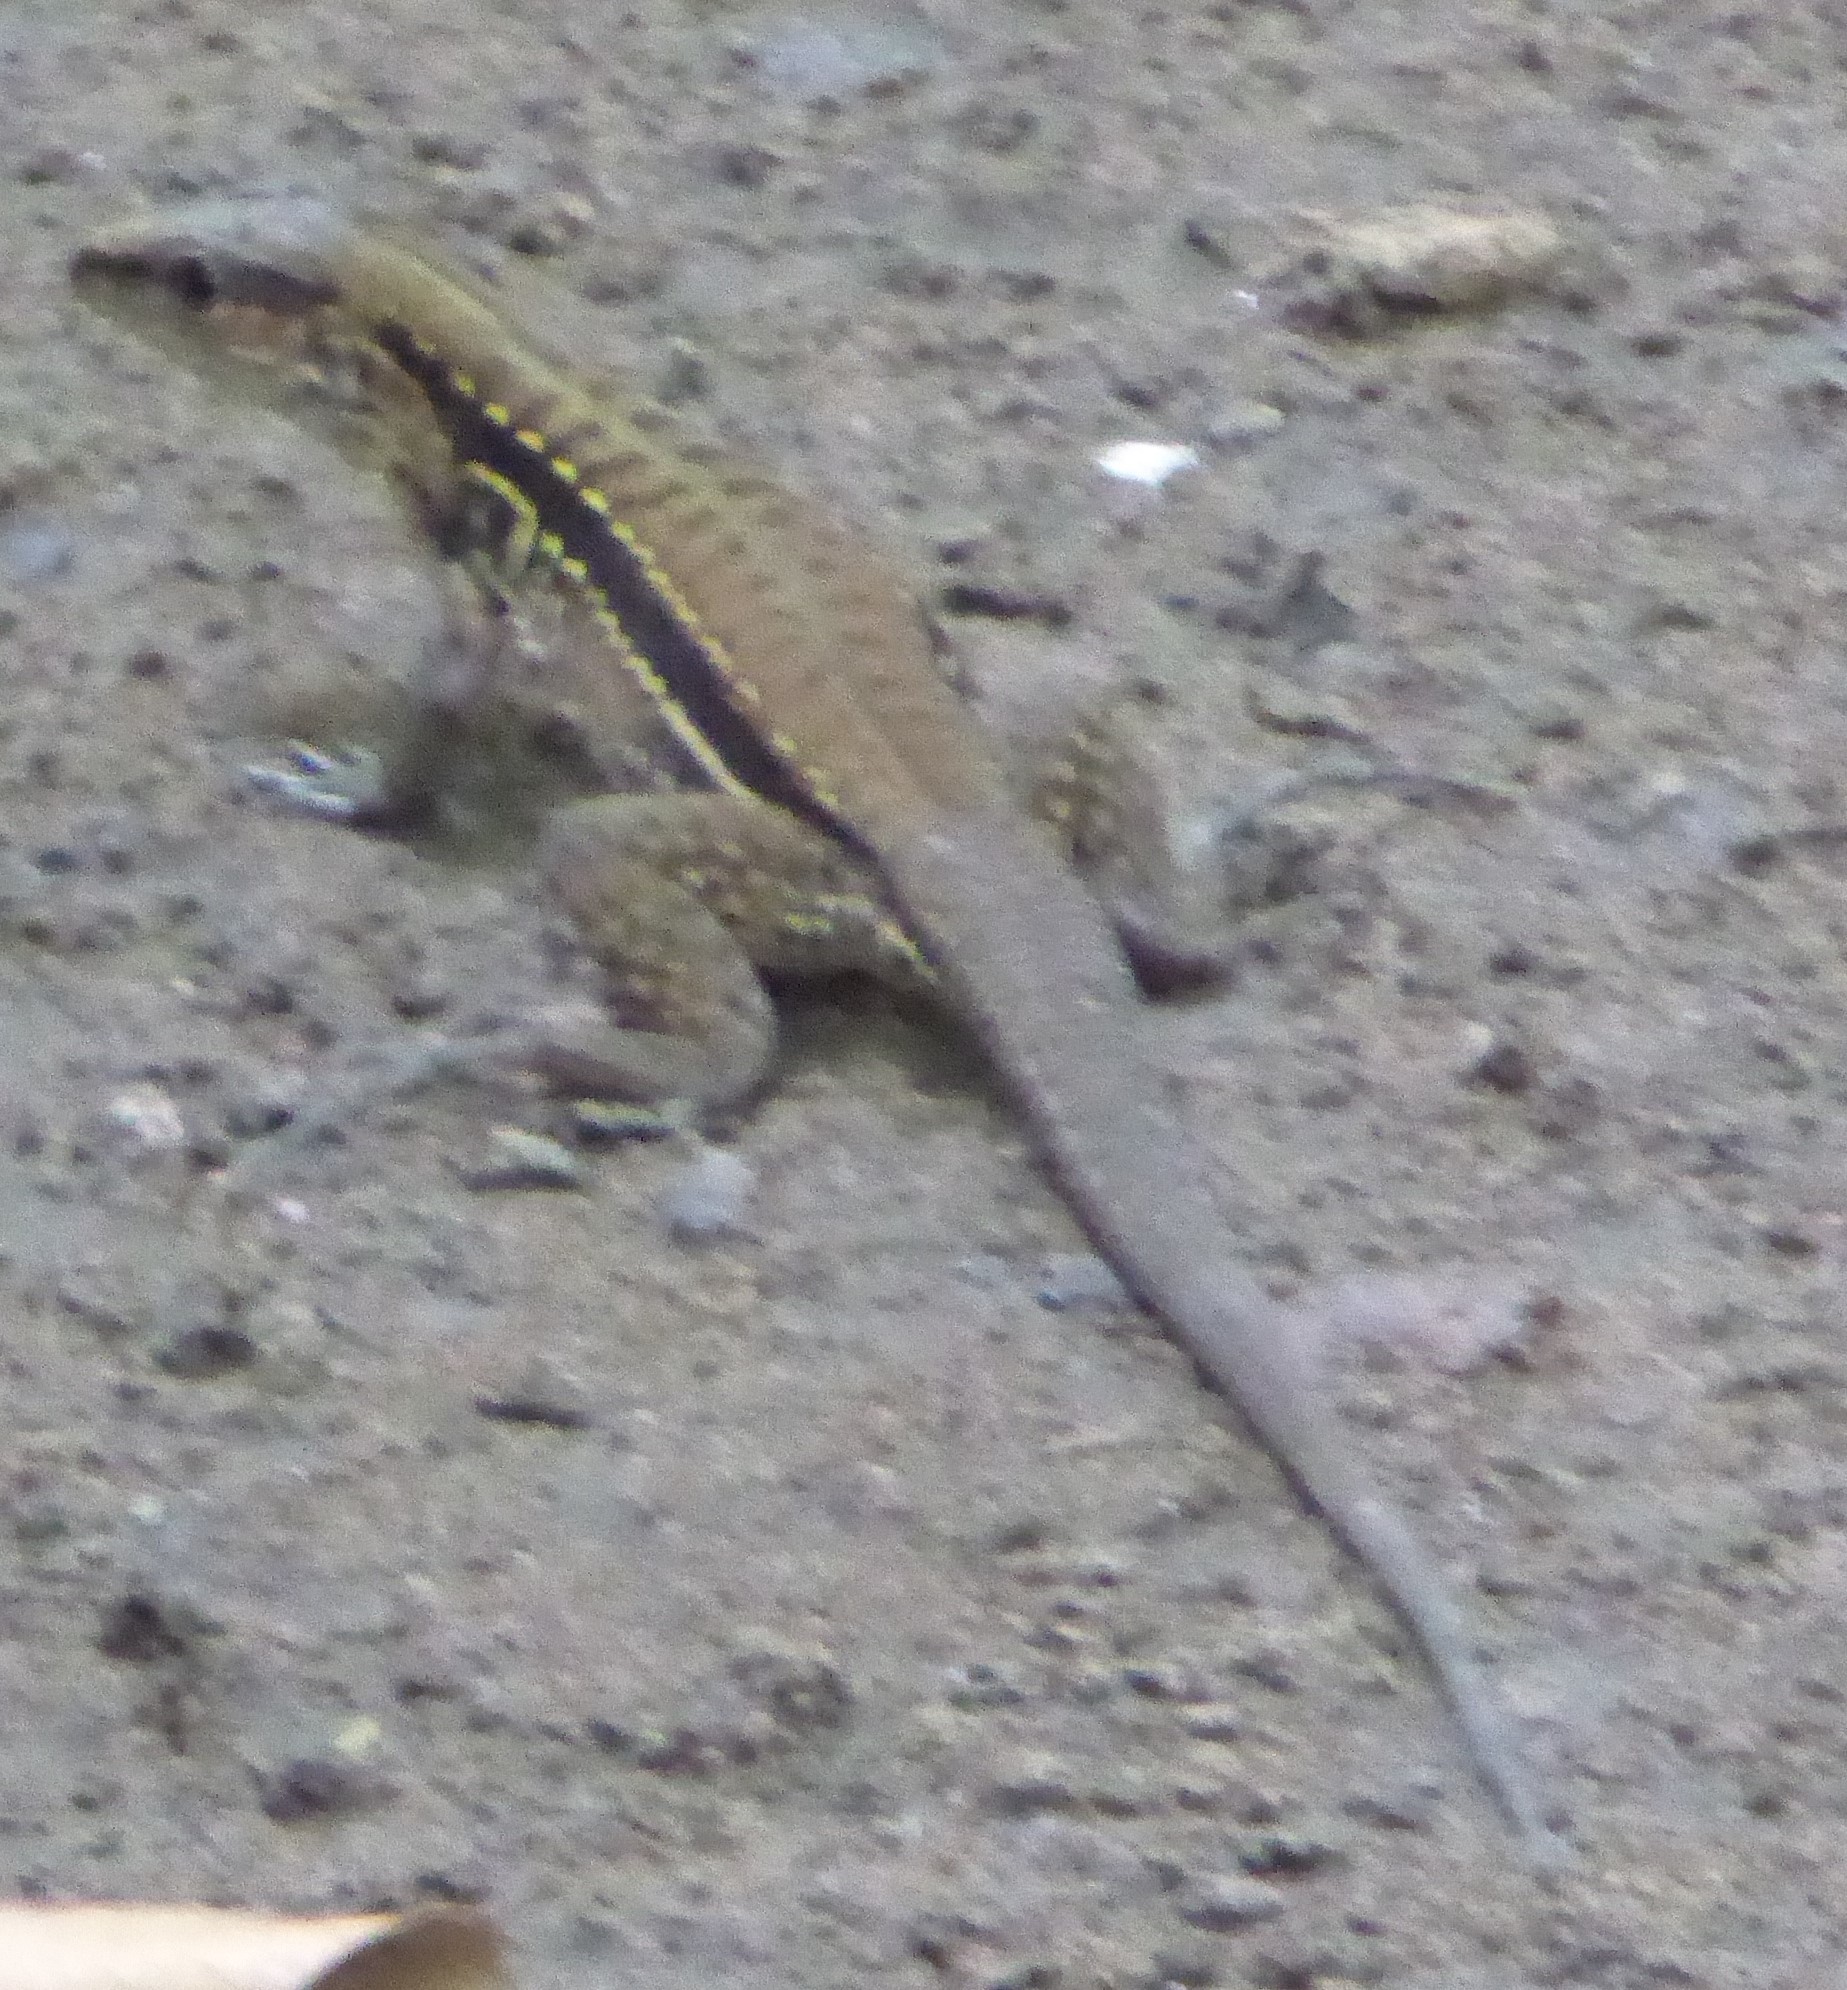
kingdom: Animalia
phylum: Chordata
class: Squamata
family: Teiidae
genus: Holcosus
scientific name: Holcosus festivus
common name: Middle american ameiva
